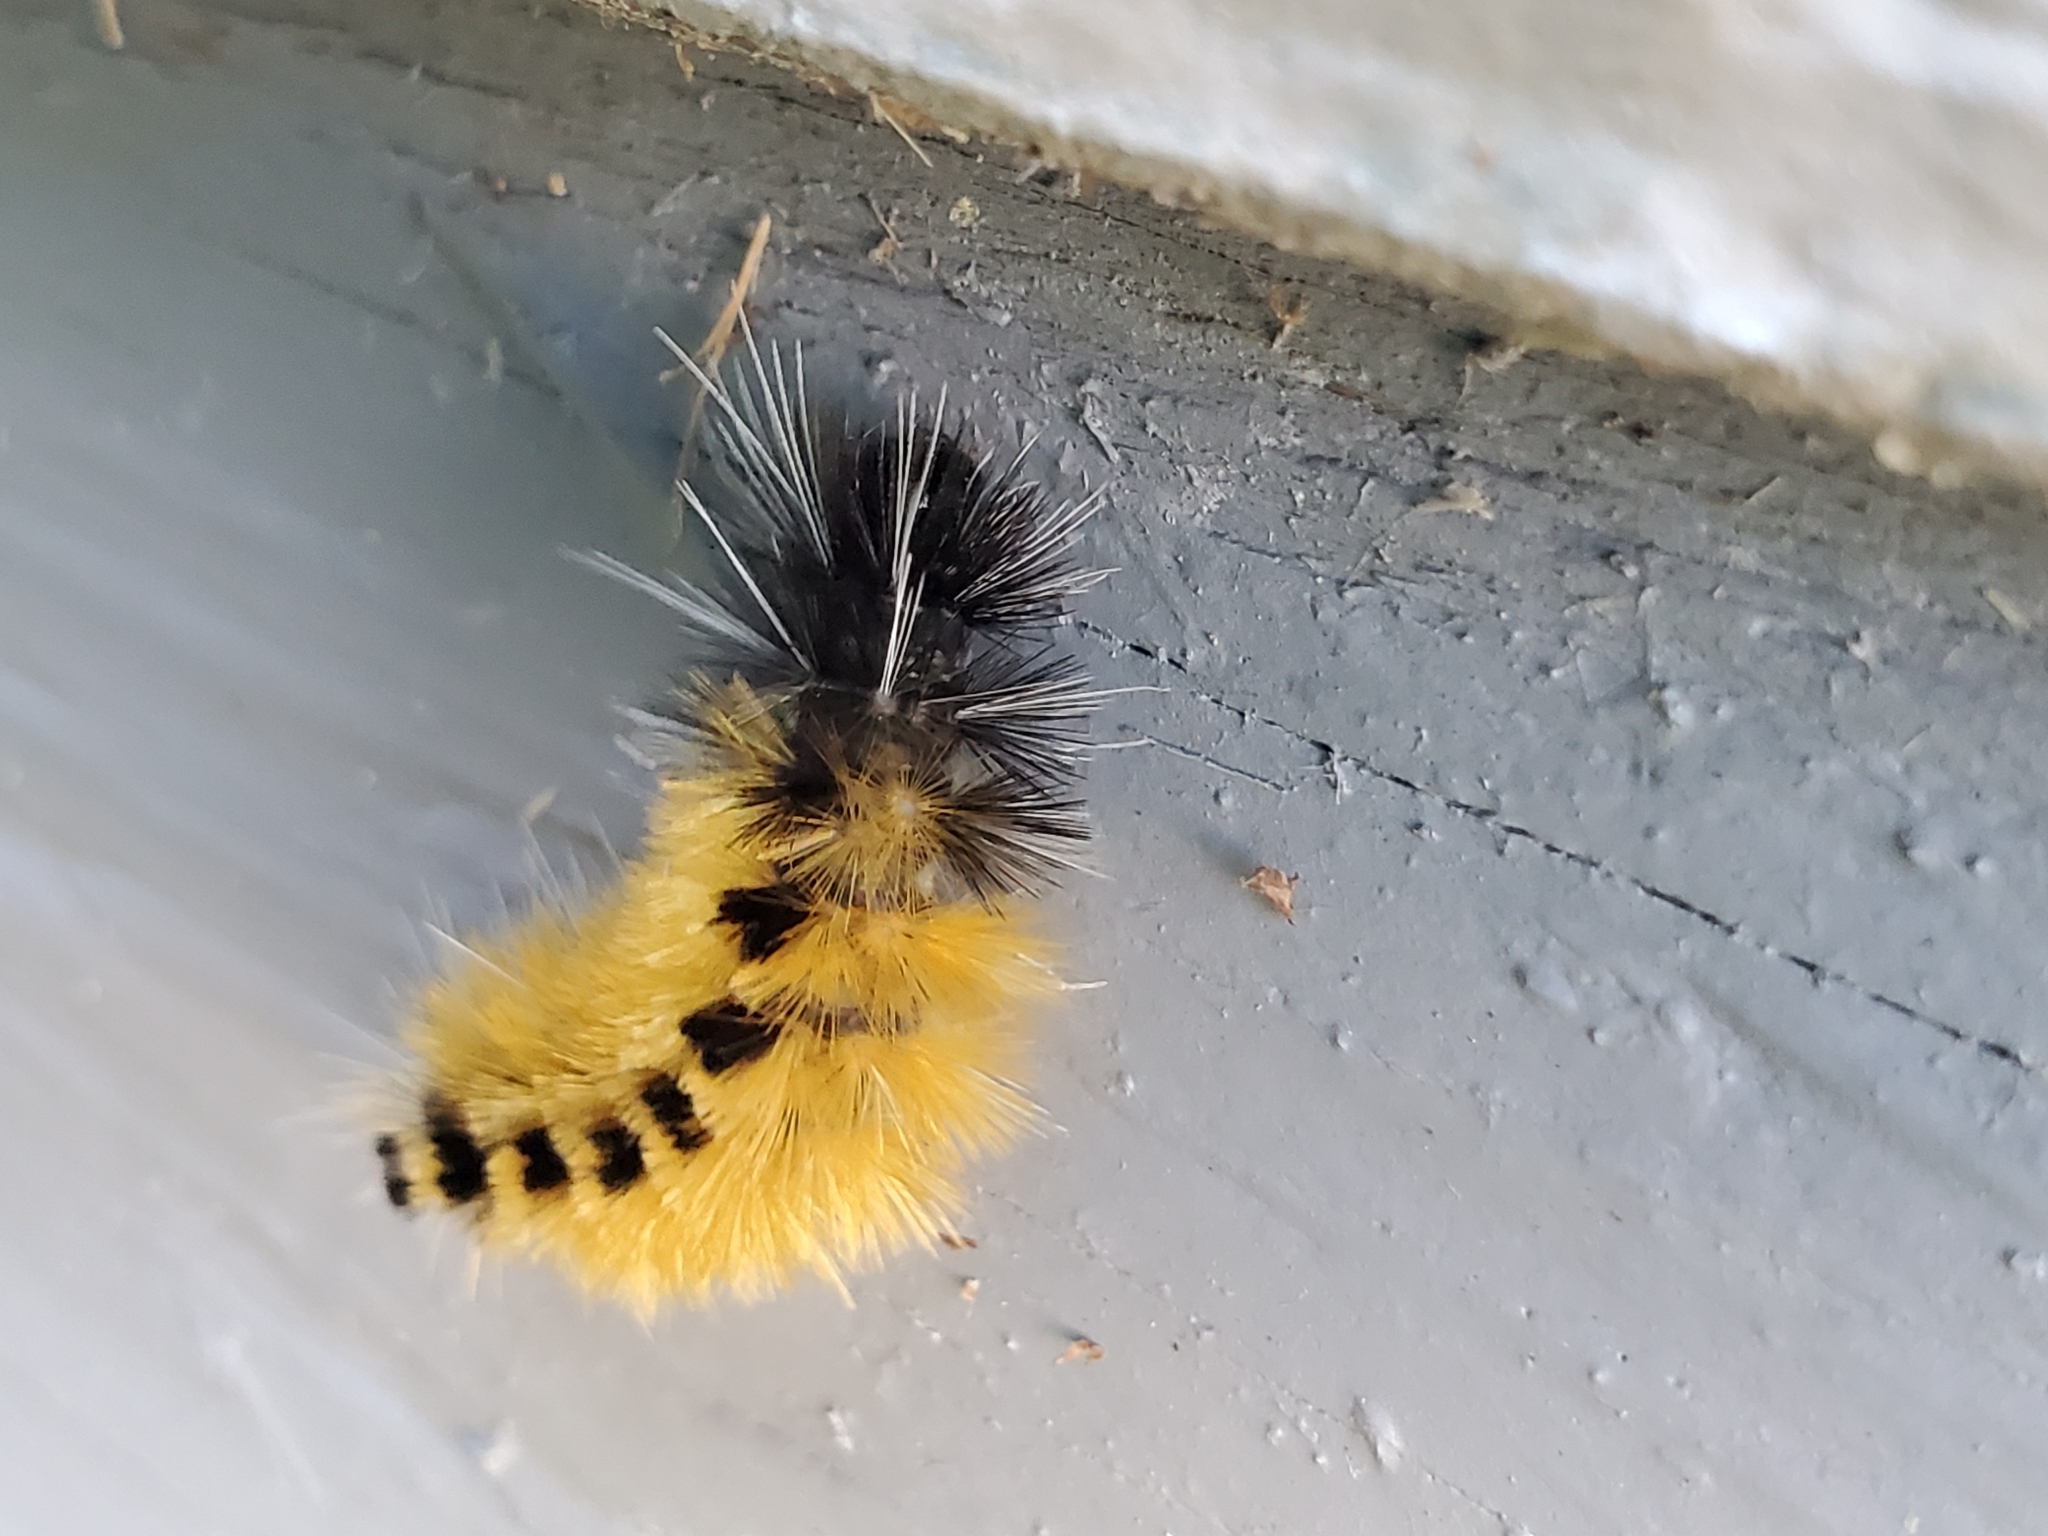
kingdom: Animalia
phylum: Arthropoda
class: Insecta
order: Lepidoptera
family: Erebidae
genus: Lophocampa
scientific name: Lophocampa maculata
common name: Spotted tussock moth
